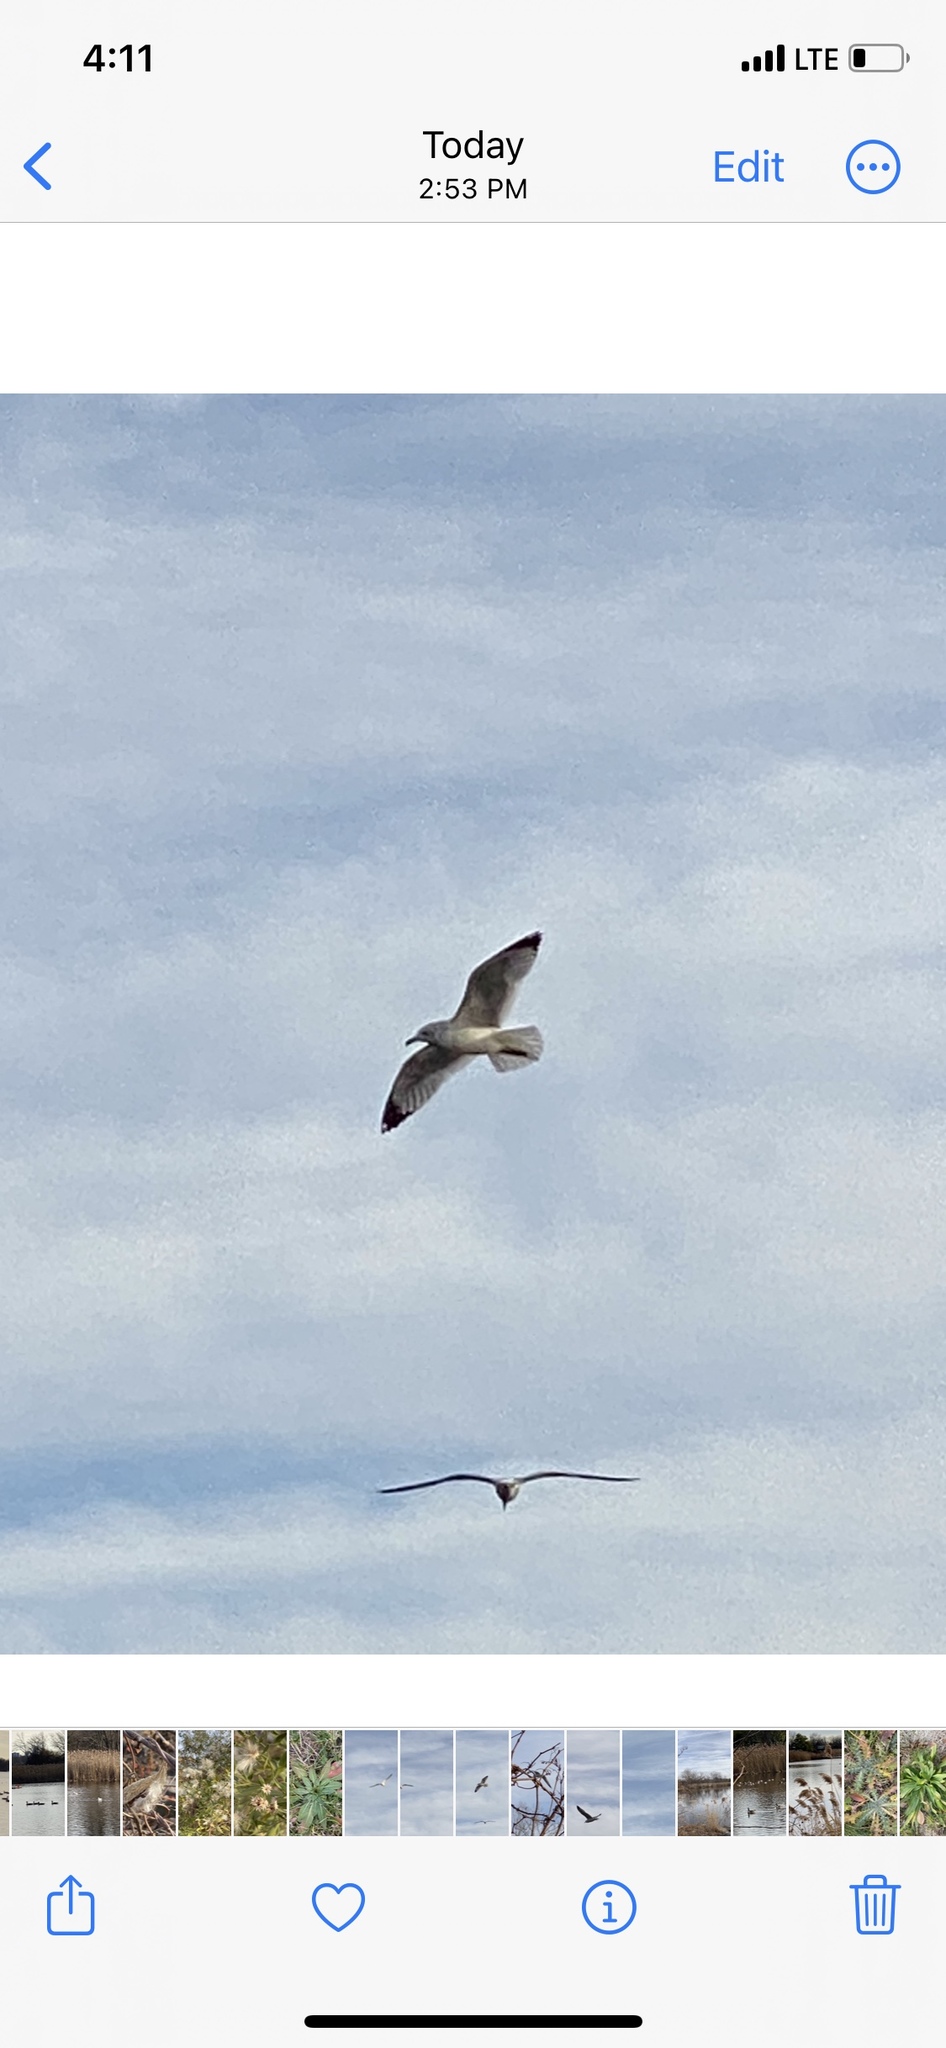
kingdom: Animalia
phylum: Chordata
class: Aves
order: Charadriiformes
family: Laridae
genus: Larus
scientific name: Larus delawarensis
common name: Ring-billed gull
